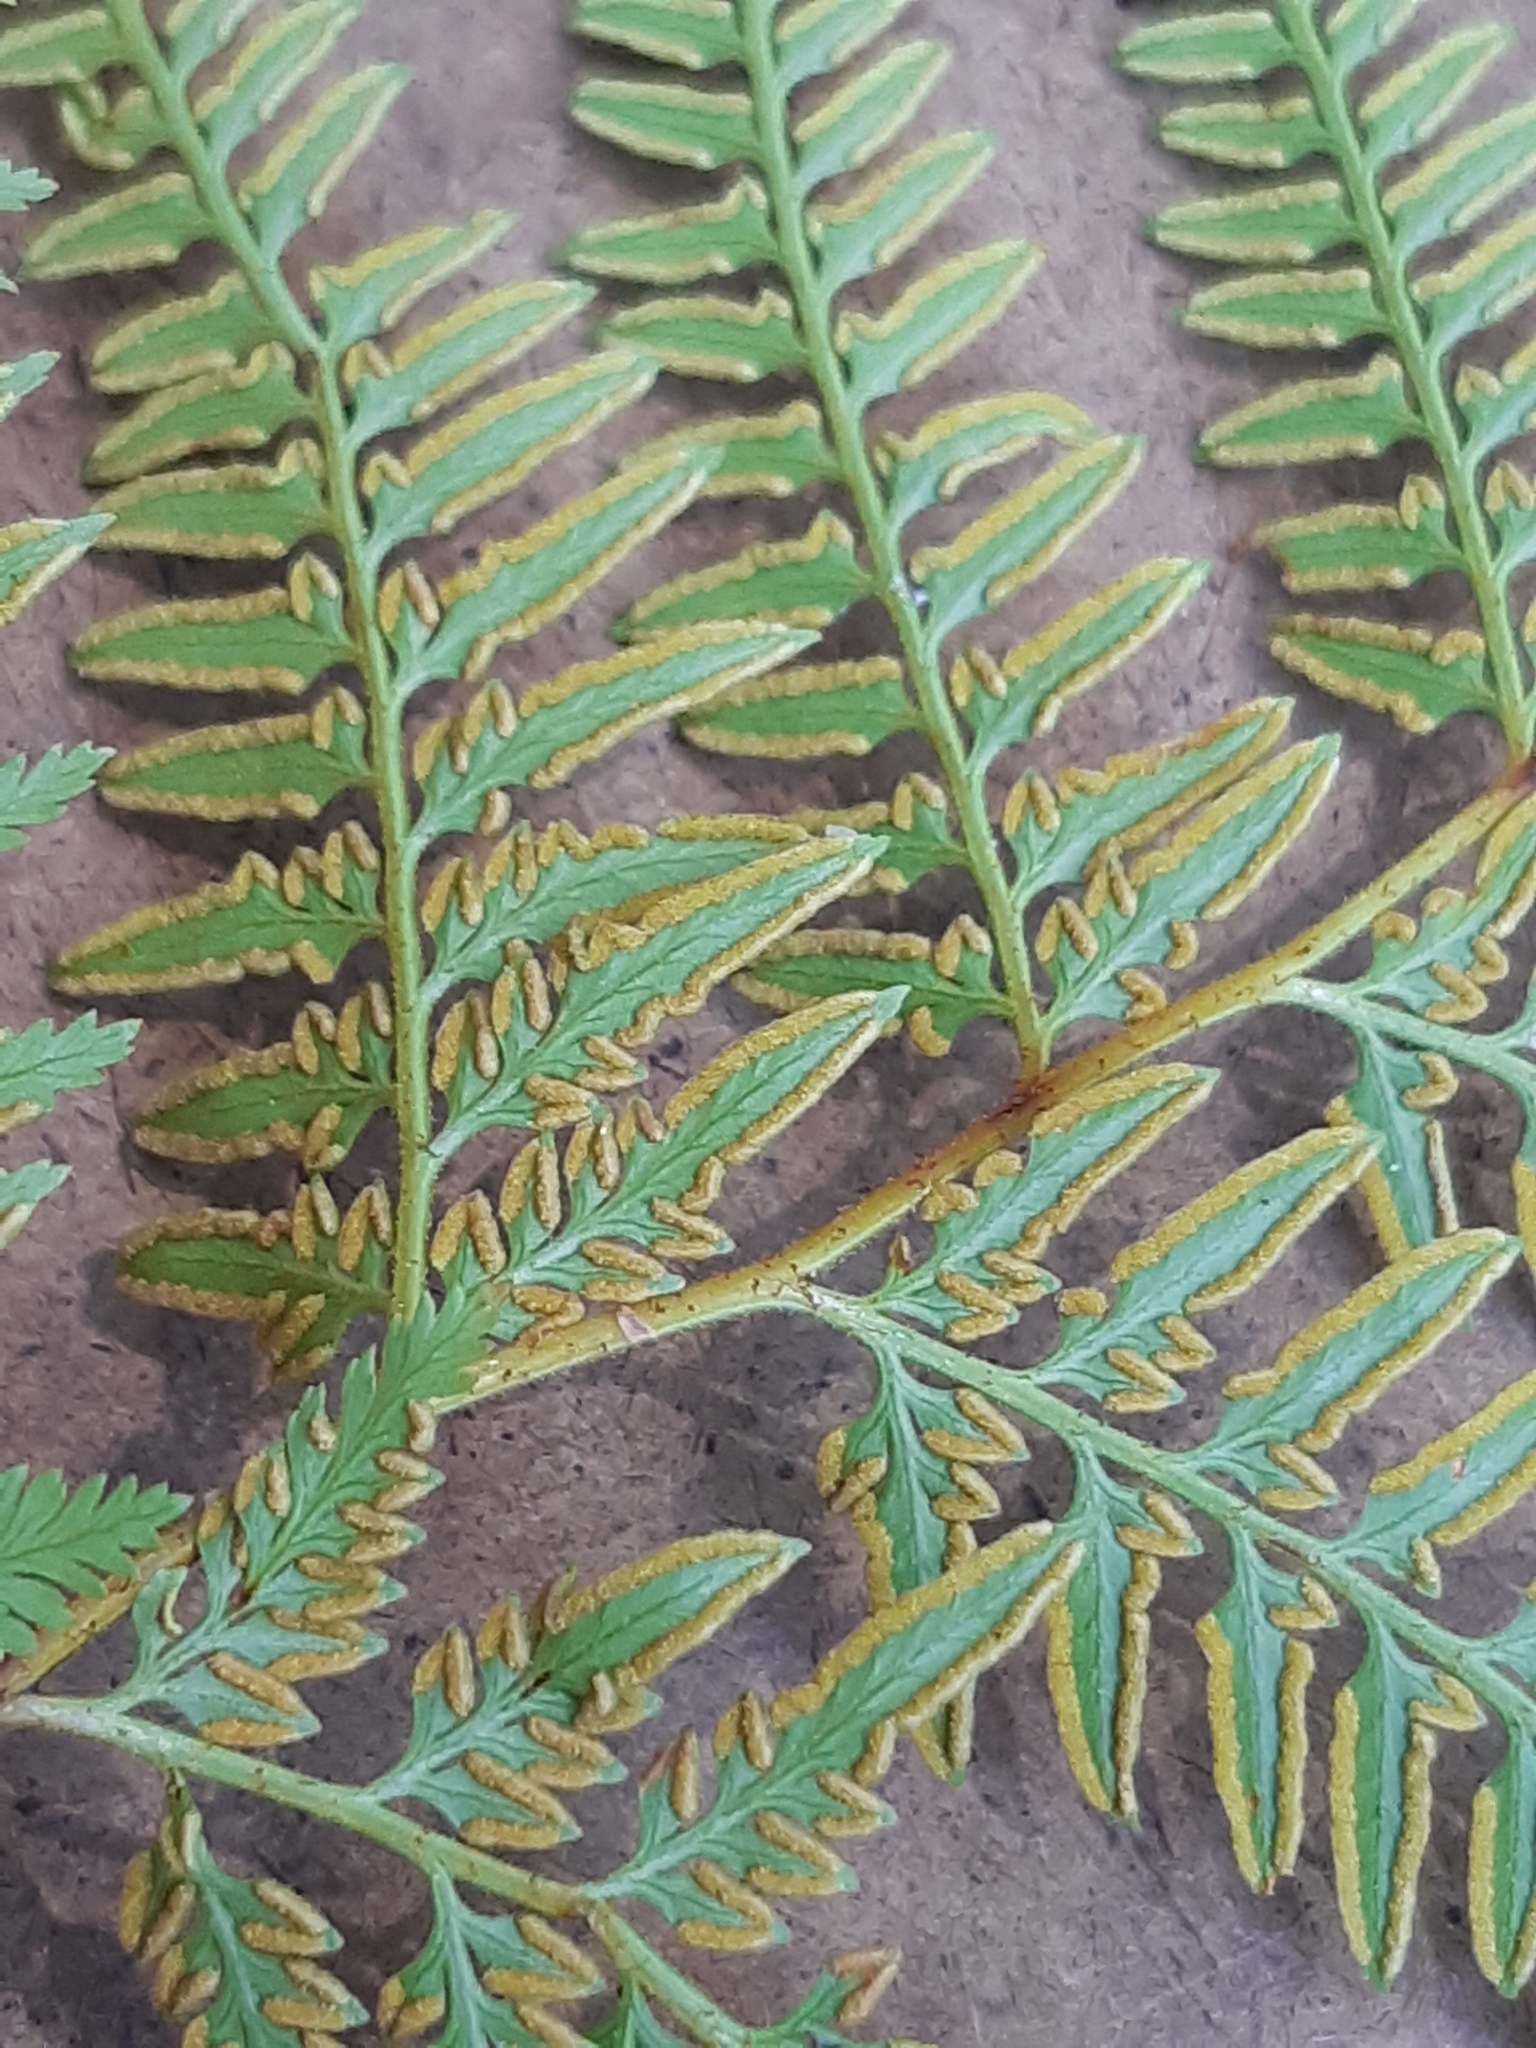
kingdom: Plantae
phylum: Tracheophyta
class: Polypodiopsida
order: Polypodiales
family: Dennstaedtiaceae
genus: Paesia
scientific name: Paesia scaberula
